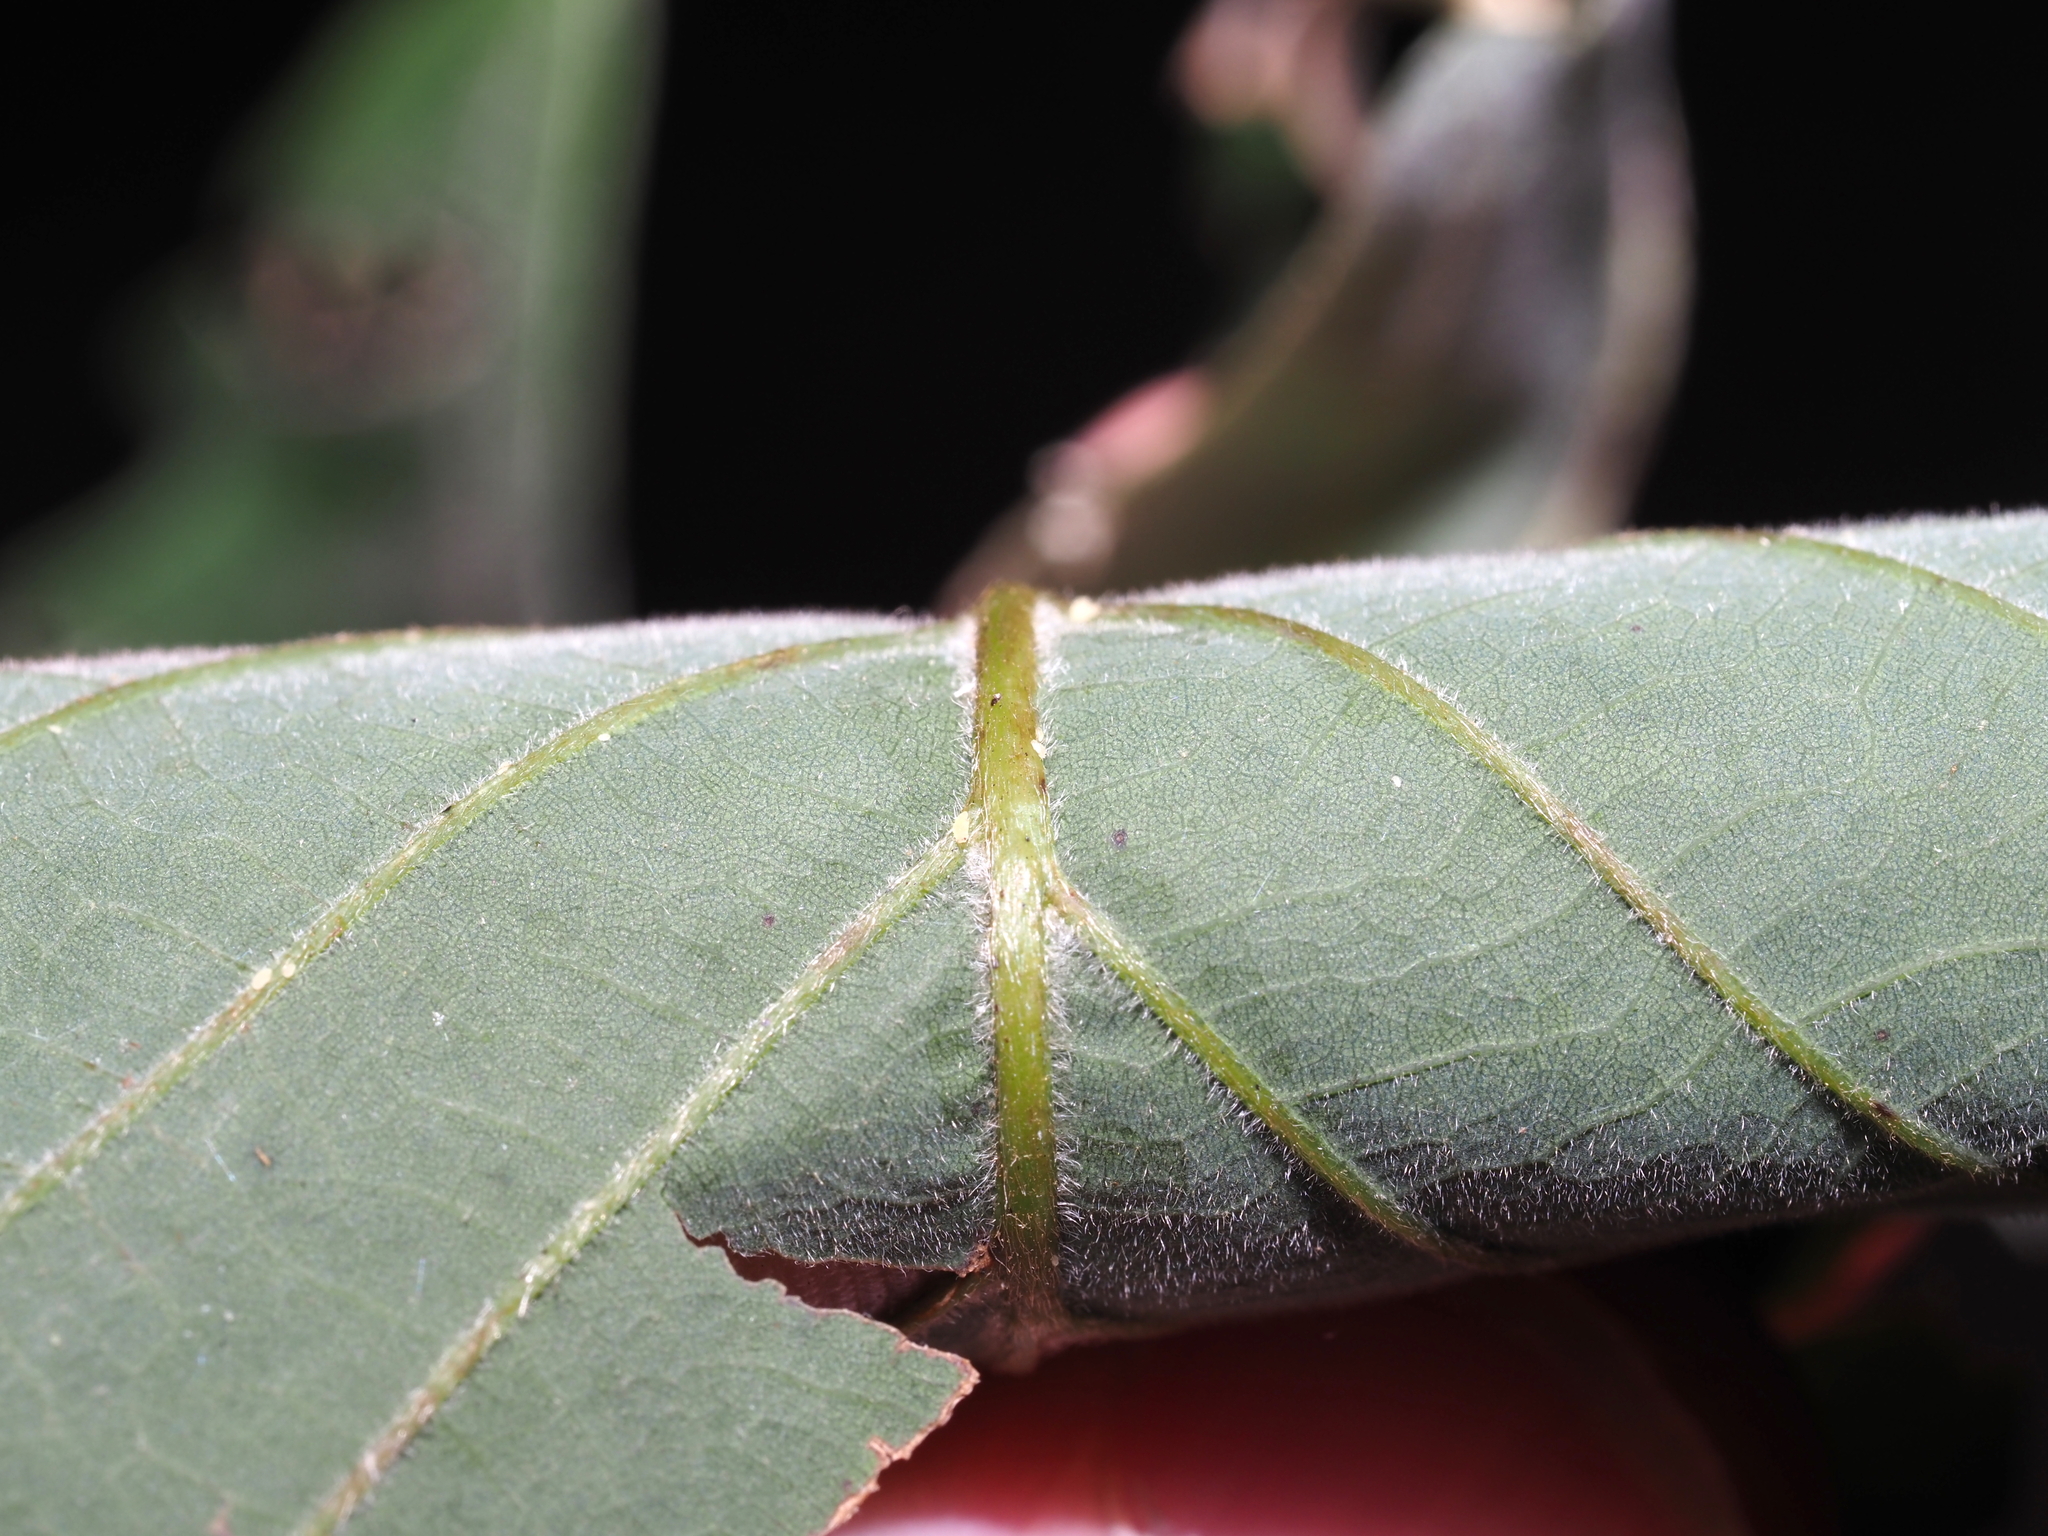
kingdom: Plantae
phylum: Tracheophyta
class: Magnoliopsida
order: Fagales
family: Fagaceae
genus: Quercus
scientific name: Quercus montana
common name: Chestnut oak
